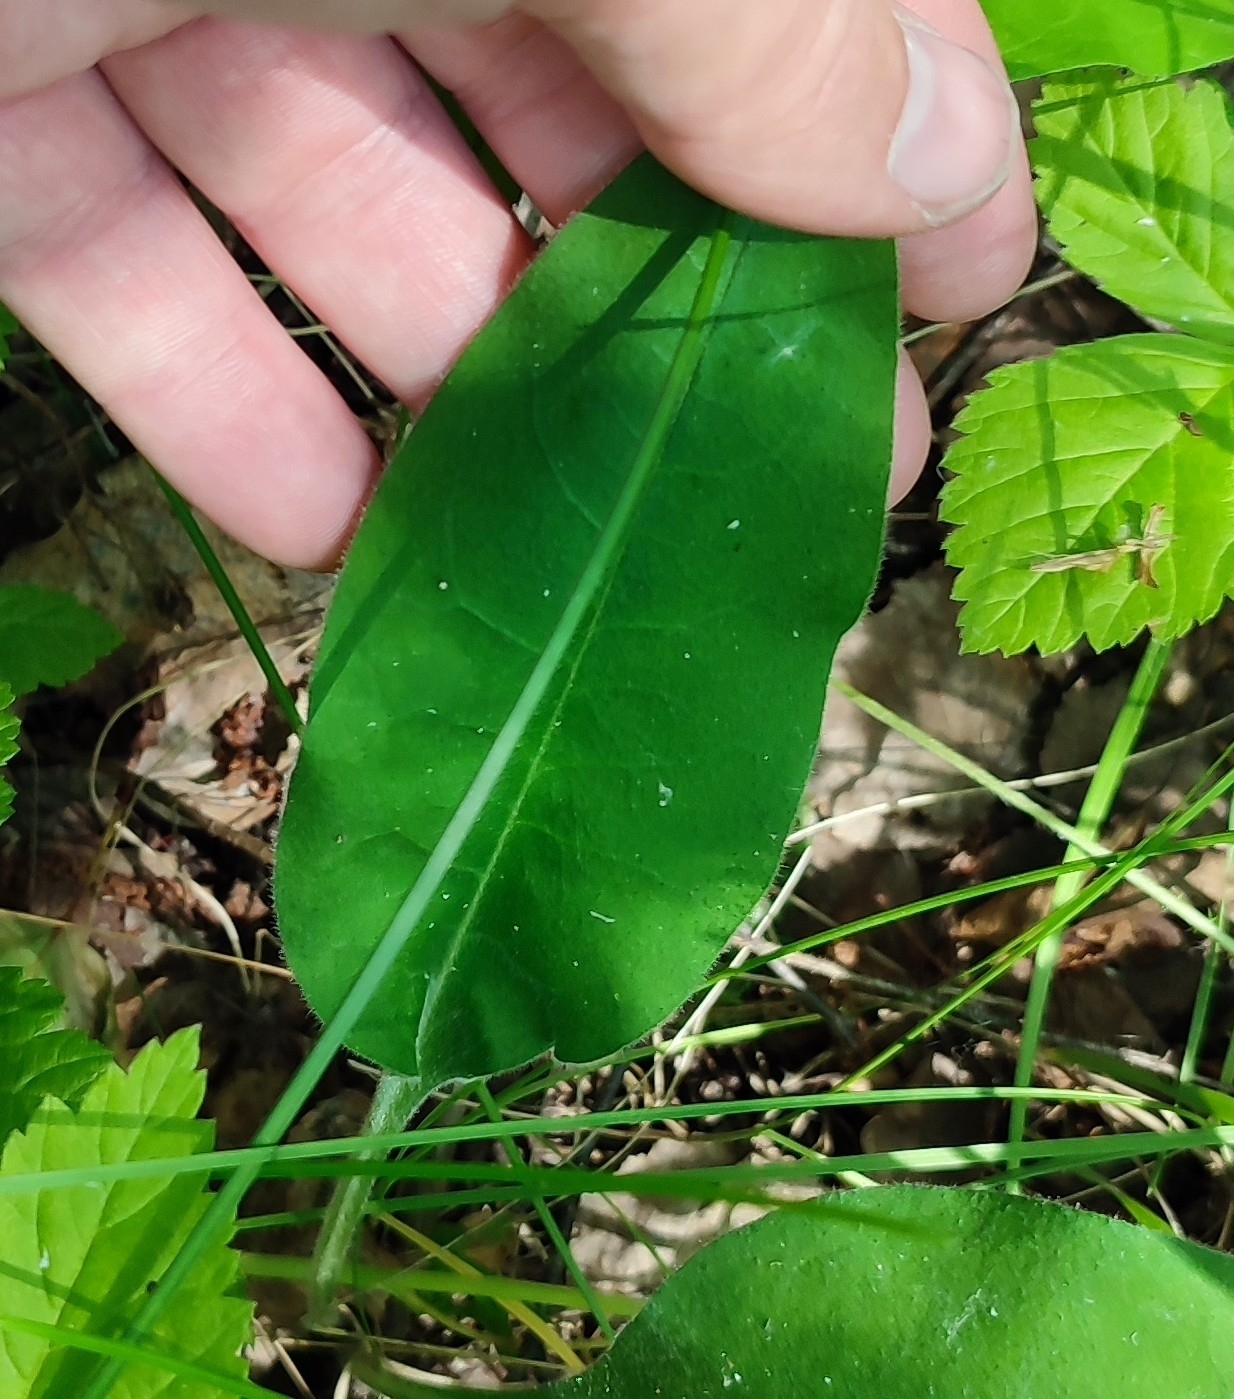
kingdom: Plantae
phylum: Tracheophyta
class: Magnoliopsida
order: Boraginales
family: Boraginaceae
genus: Pulmonaria
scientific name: Pulmonaria mollis
